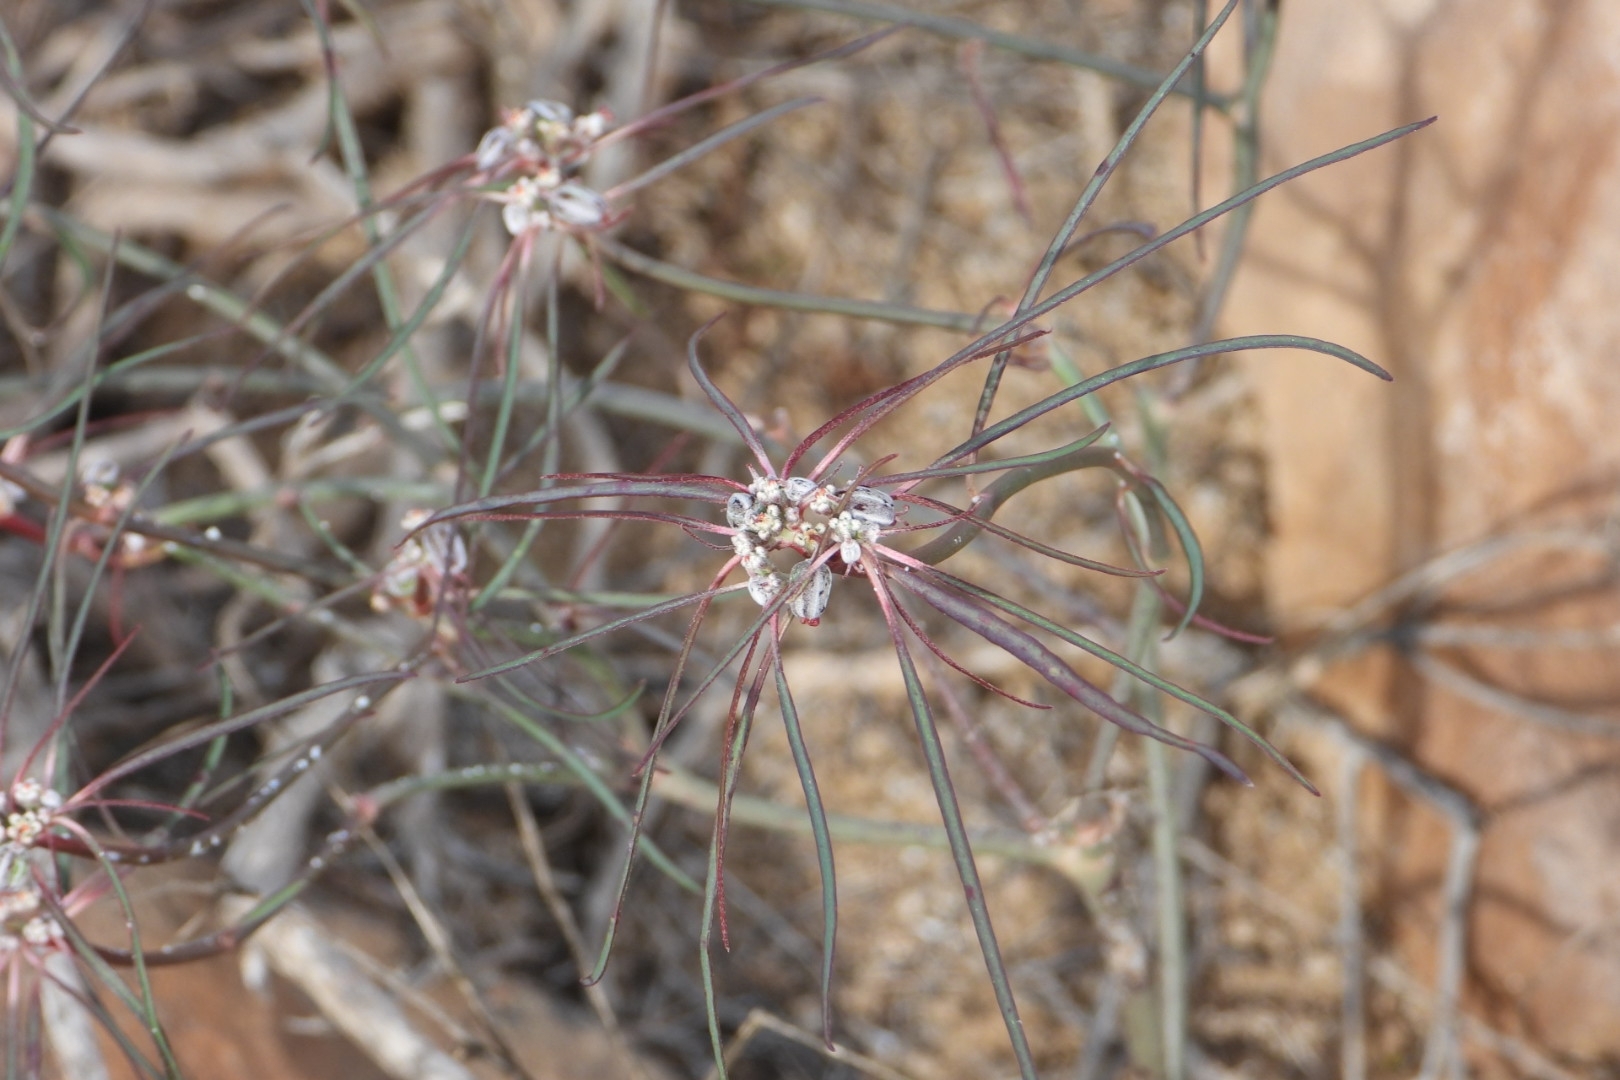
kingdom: Plantae
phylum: Tracheophyta
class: Magnoliopsida
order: Malpighiales
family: Euphorbiaceae
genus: Euphorbia
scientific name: Euphorbia eriantha
